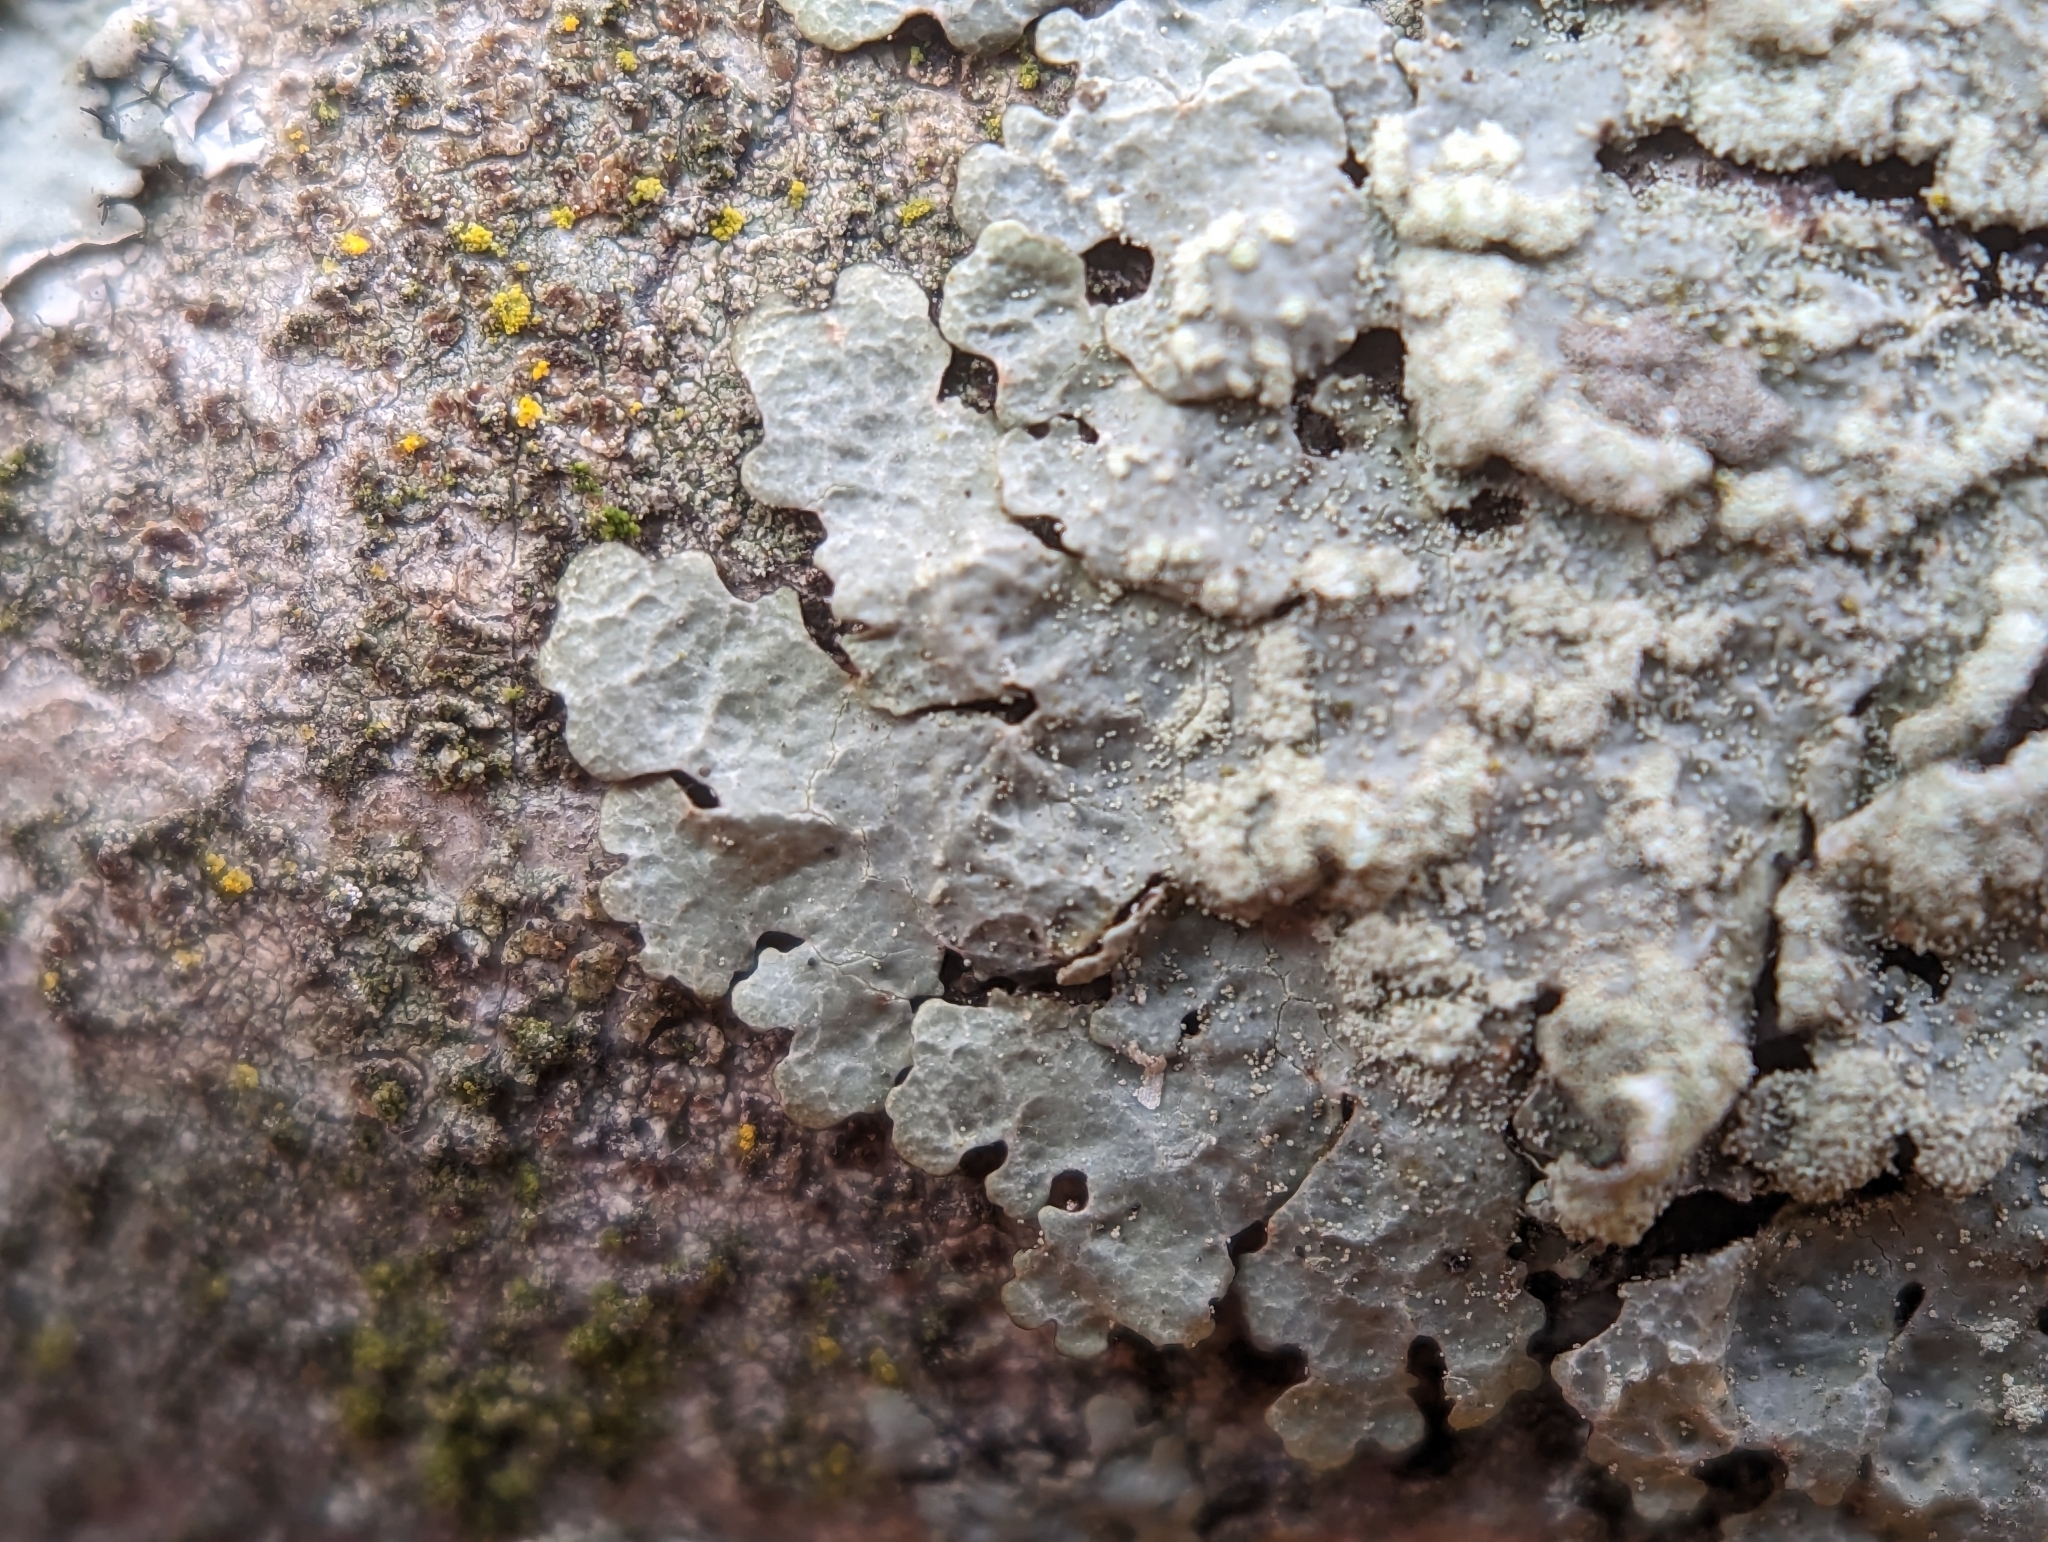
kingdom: Fungi
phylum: Ascomycota
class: Lecanoromycetes
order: Lecanorales
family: Parmeliaceae
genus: Crespoa
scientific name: Crespoa crozalsiana
